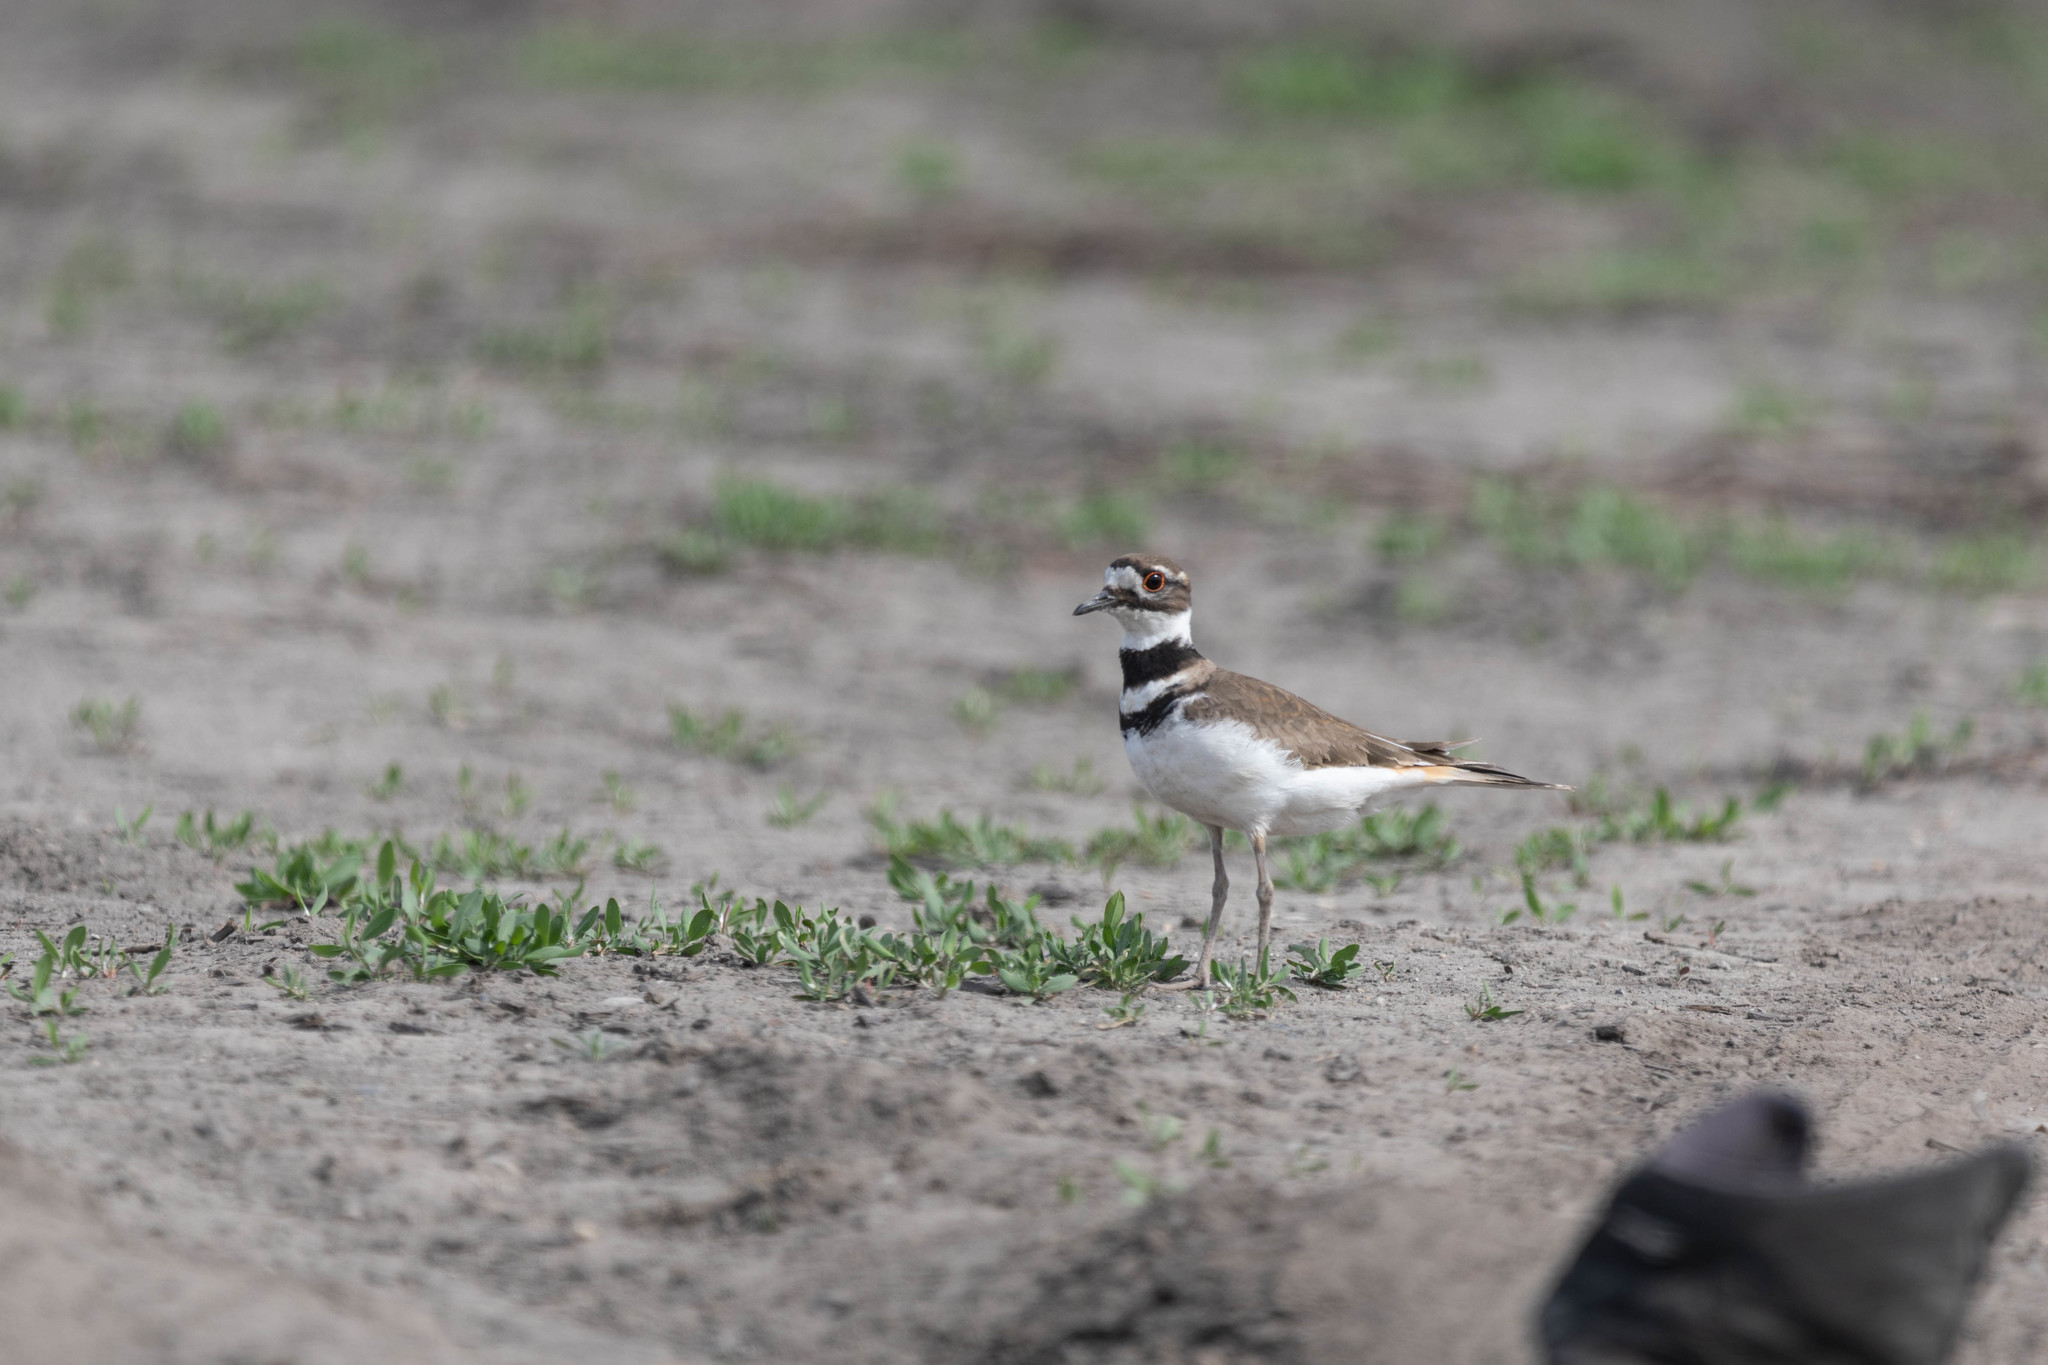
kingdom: Animalia
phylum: Chordata
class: Aves
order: Charadriiformes
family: Charadriidae
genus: Charadrius
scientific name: Charadrius vociferus
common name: Killdeer
